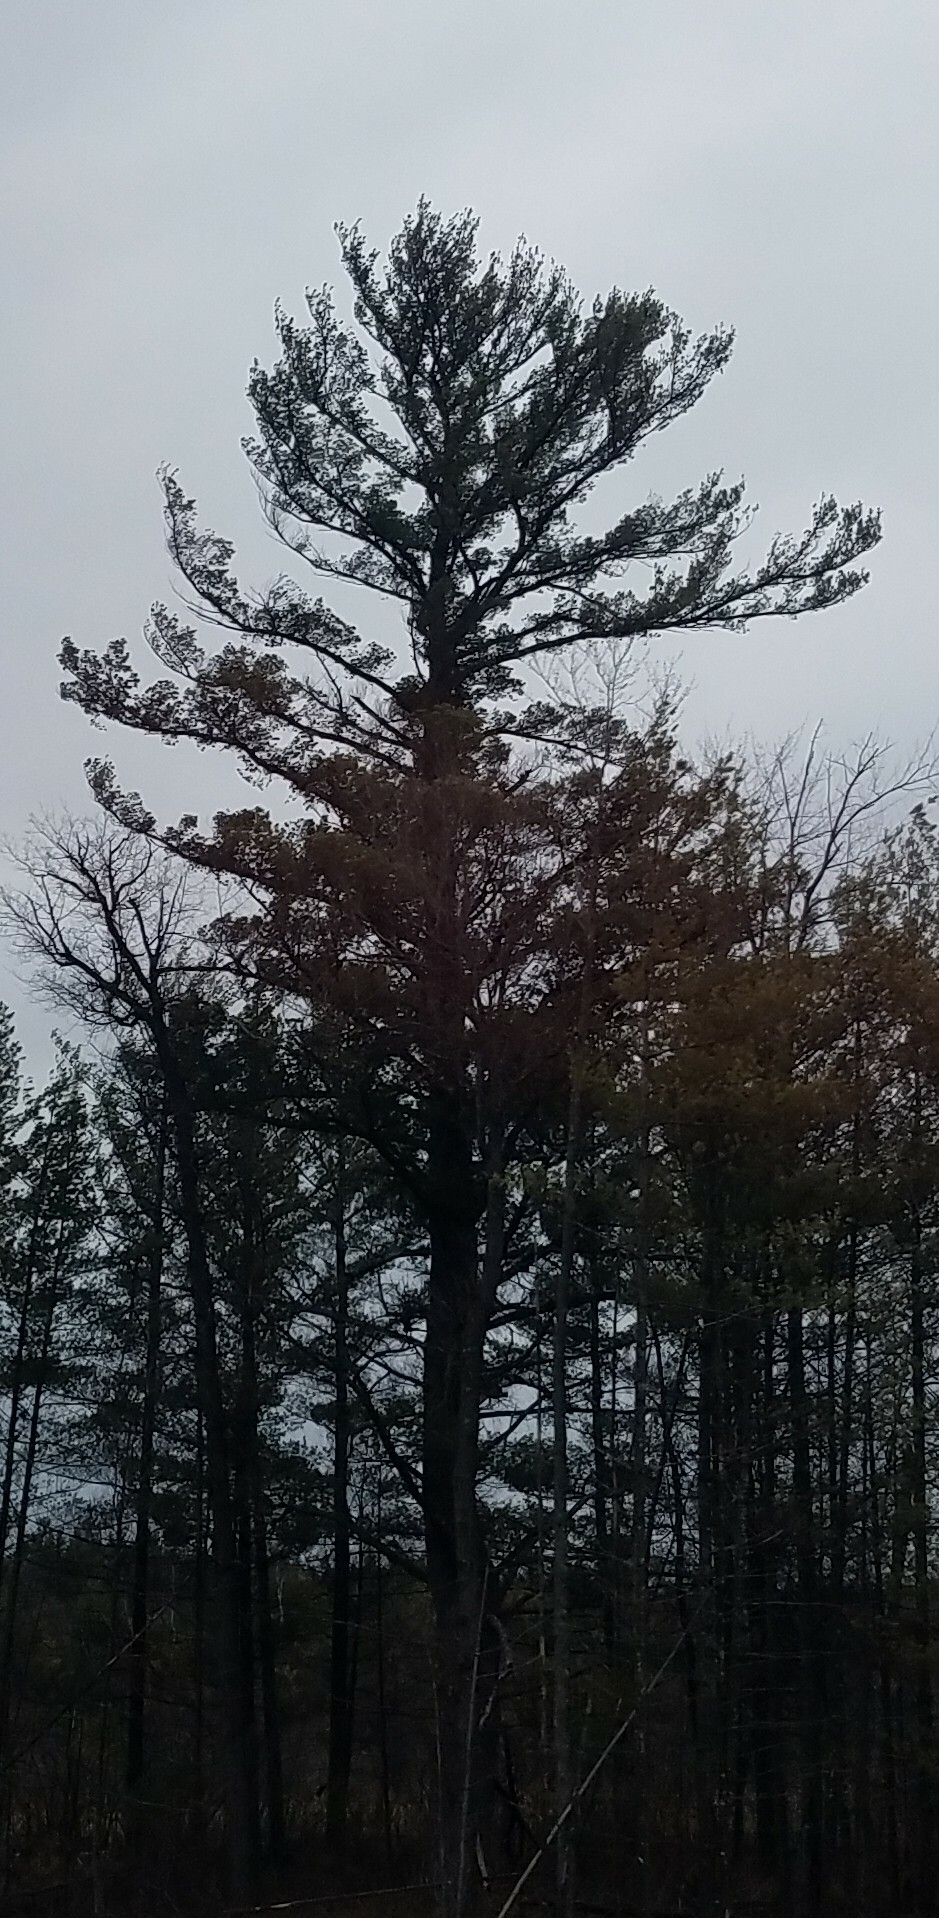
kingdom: Plantae
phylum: Tracheophyta
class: Pinopsida
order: Pinales
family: Pinaceae
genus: Pinus
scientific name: Pinus strobus
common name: Weymouth pine
